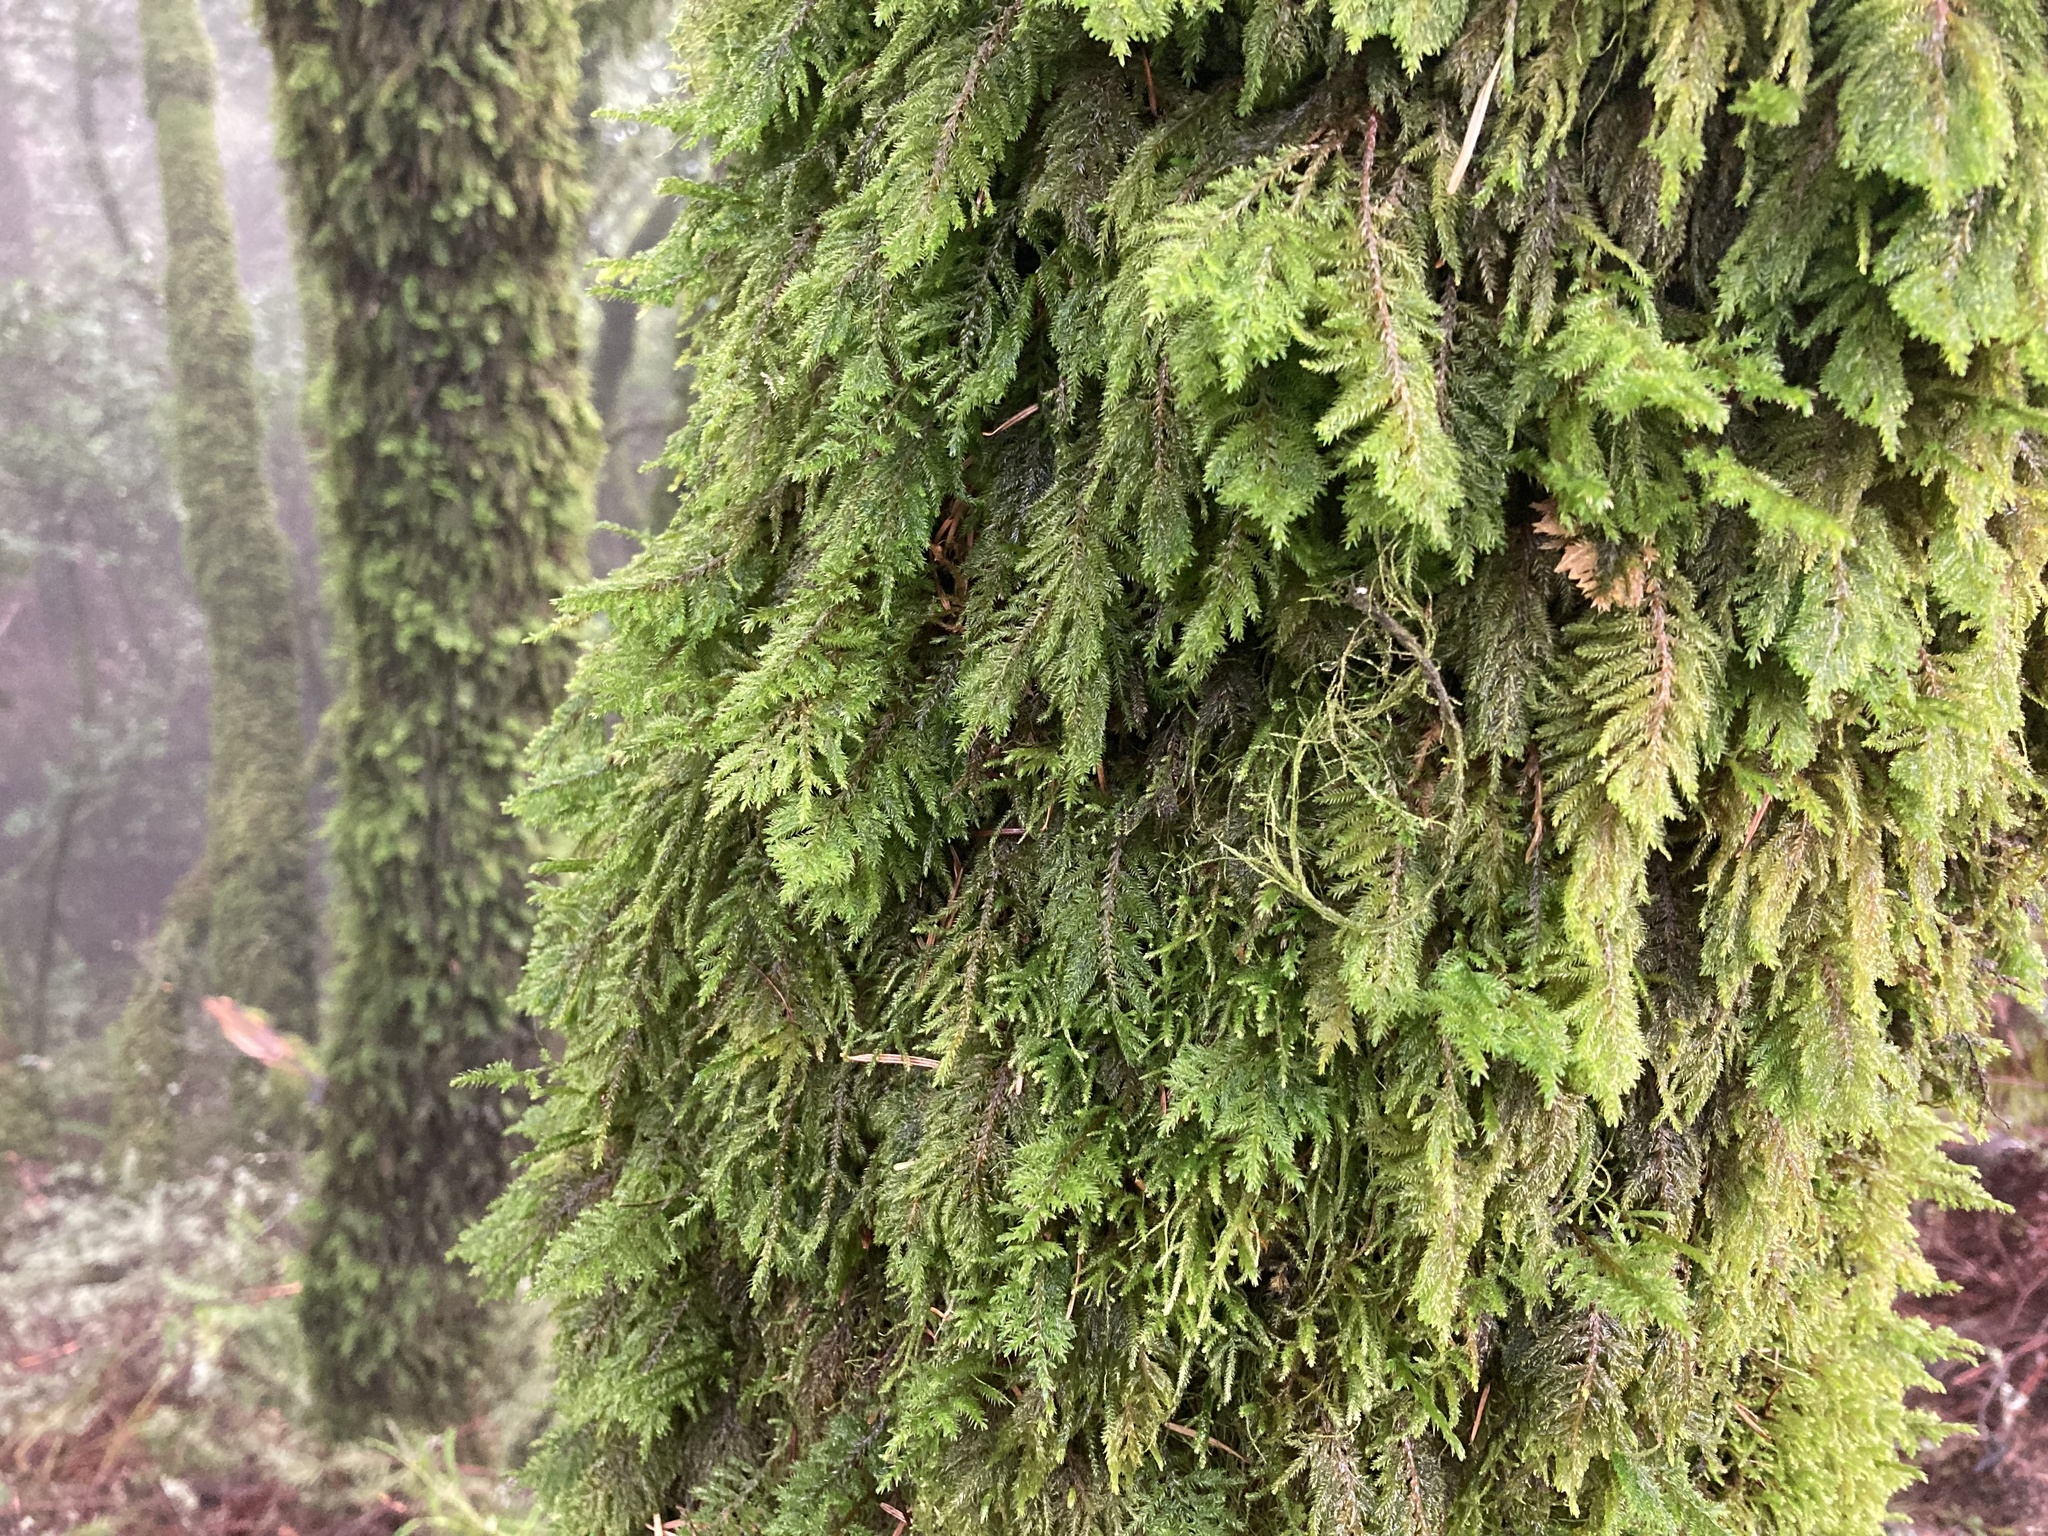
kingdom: Plantae
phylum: Bryophyta
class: Bryopsida
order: Hypnales
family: Cryphaeaceae
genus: Dendroalsia
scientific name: Dendroalsia abietina
